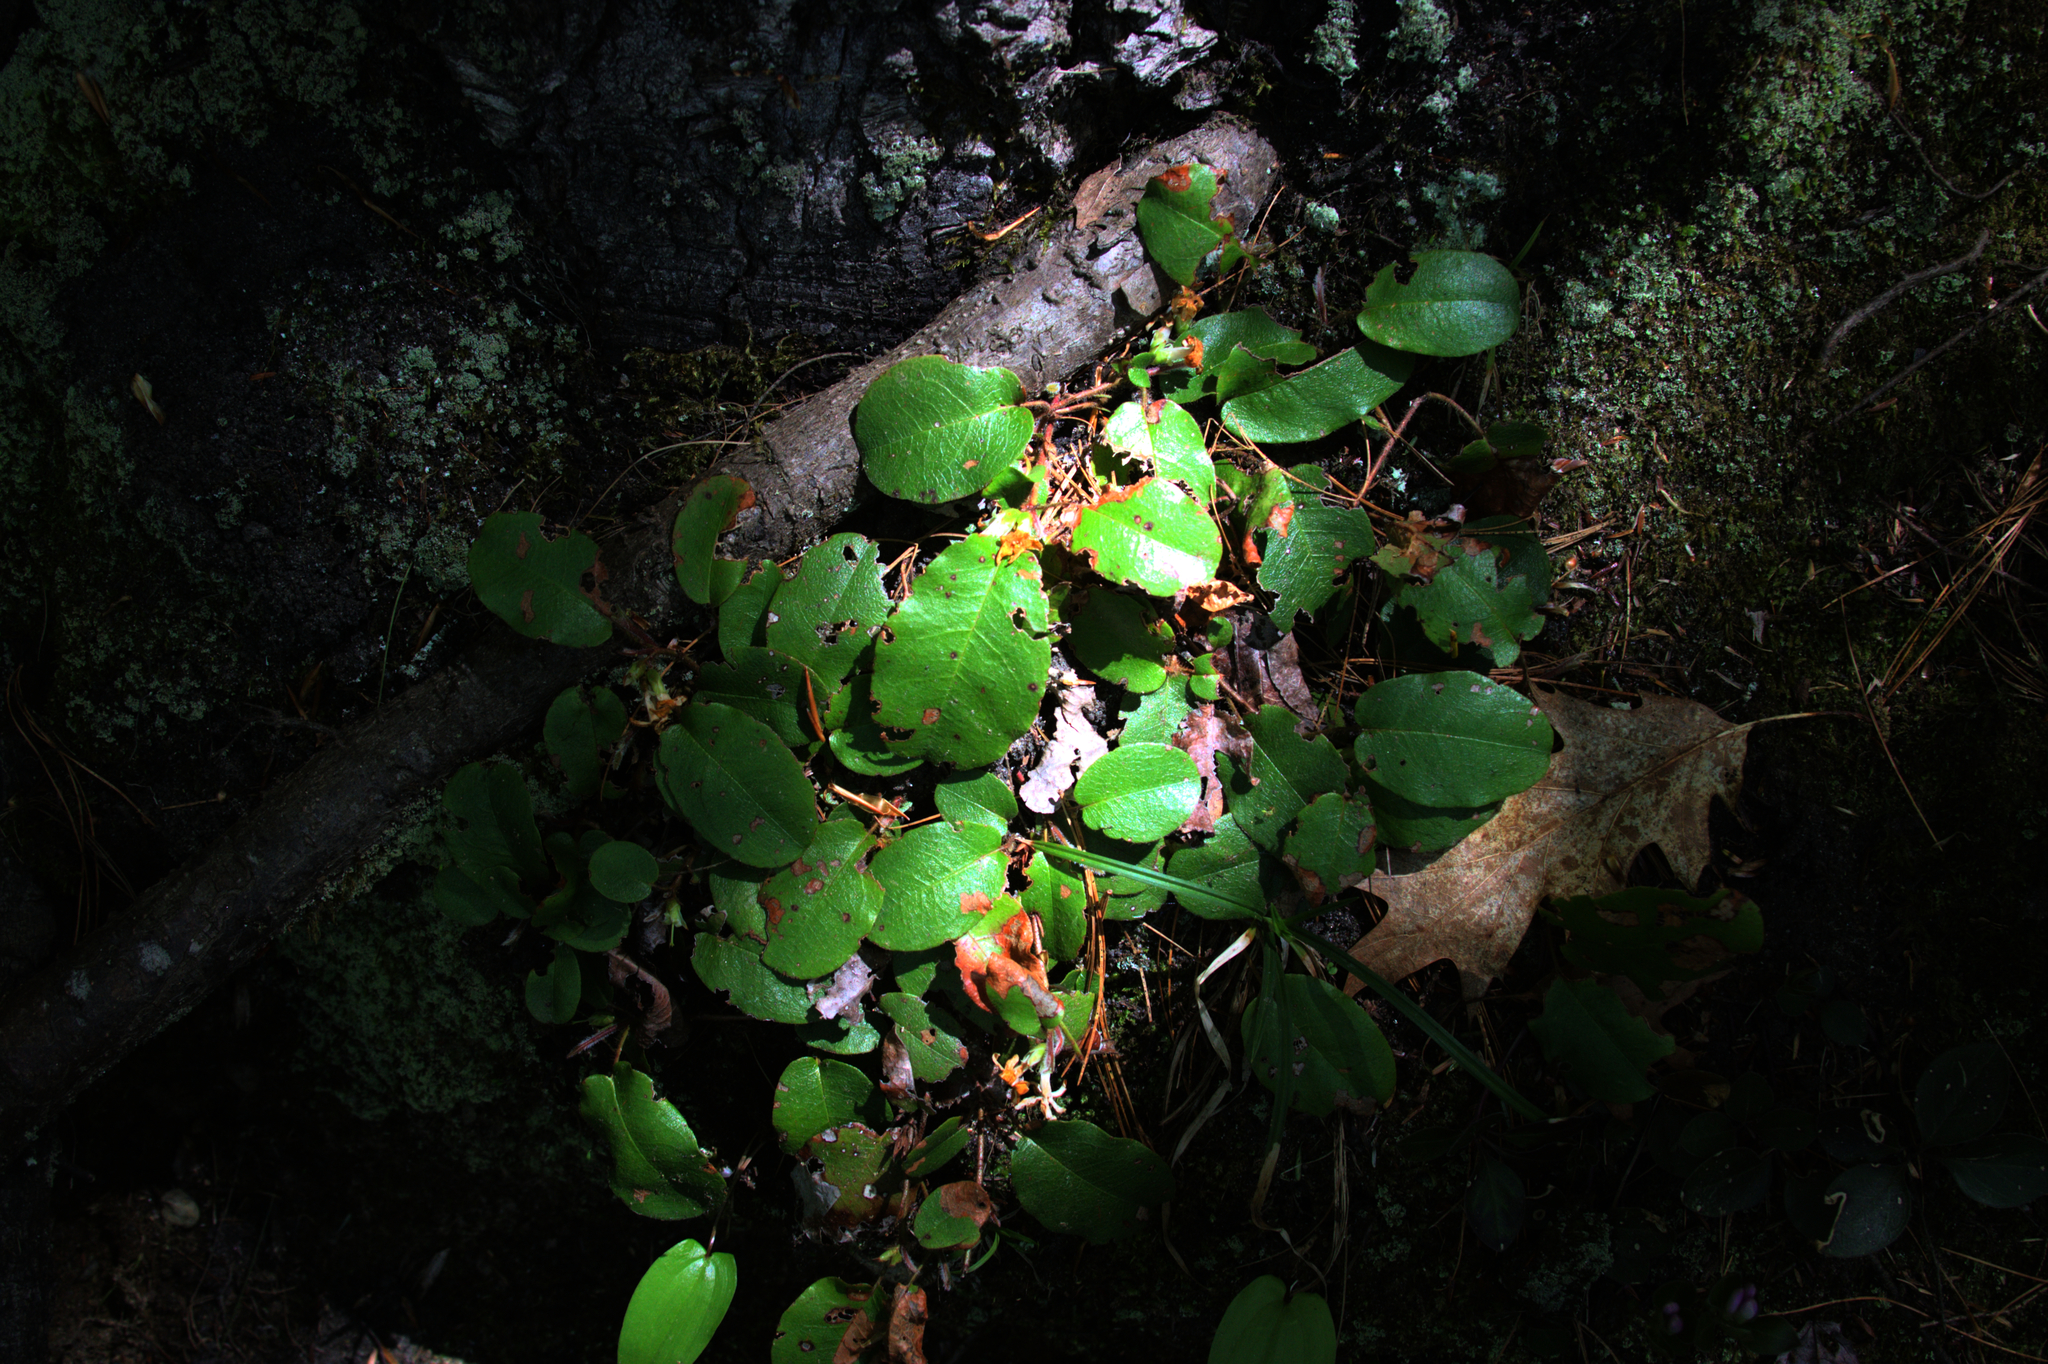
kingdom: Plantae
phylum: Tracheophyta
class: Magnoliopsida
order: Ericales
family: Ericaceae
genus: Epigaea
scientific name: Epigaea repens
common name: Gravelroot
